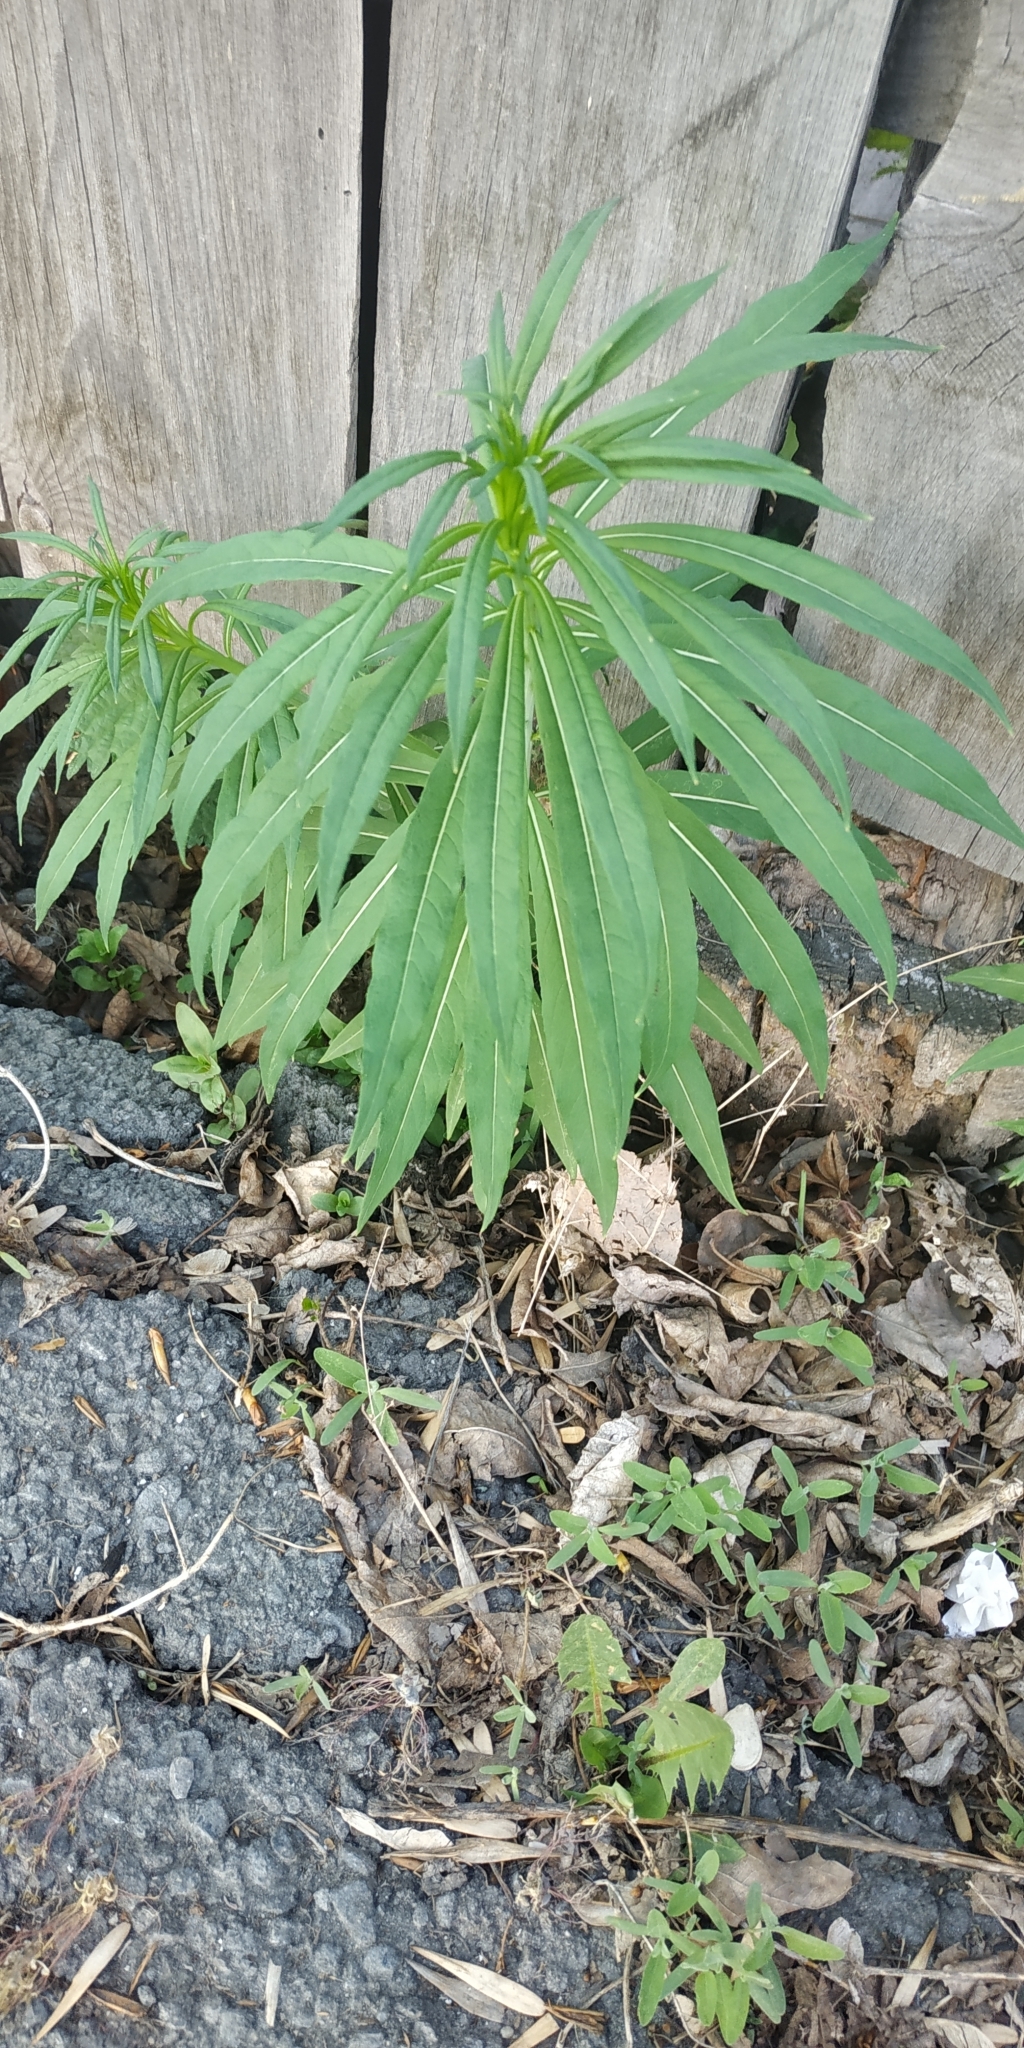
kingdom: Plantae
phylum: Tracheophyta
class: Magnoliopsida
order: Myrtales
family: Onagraceae
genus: Chamaenerion
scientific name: Chamaenerion angustifolium
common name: Fireweed
